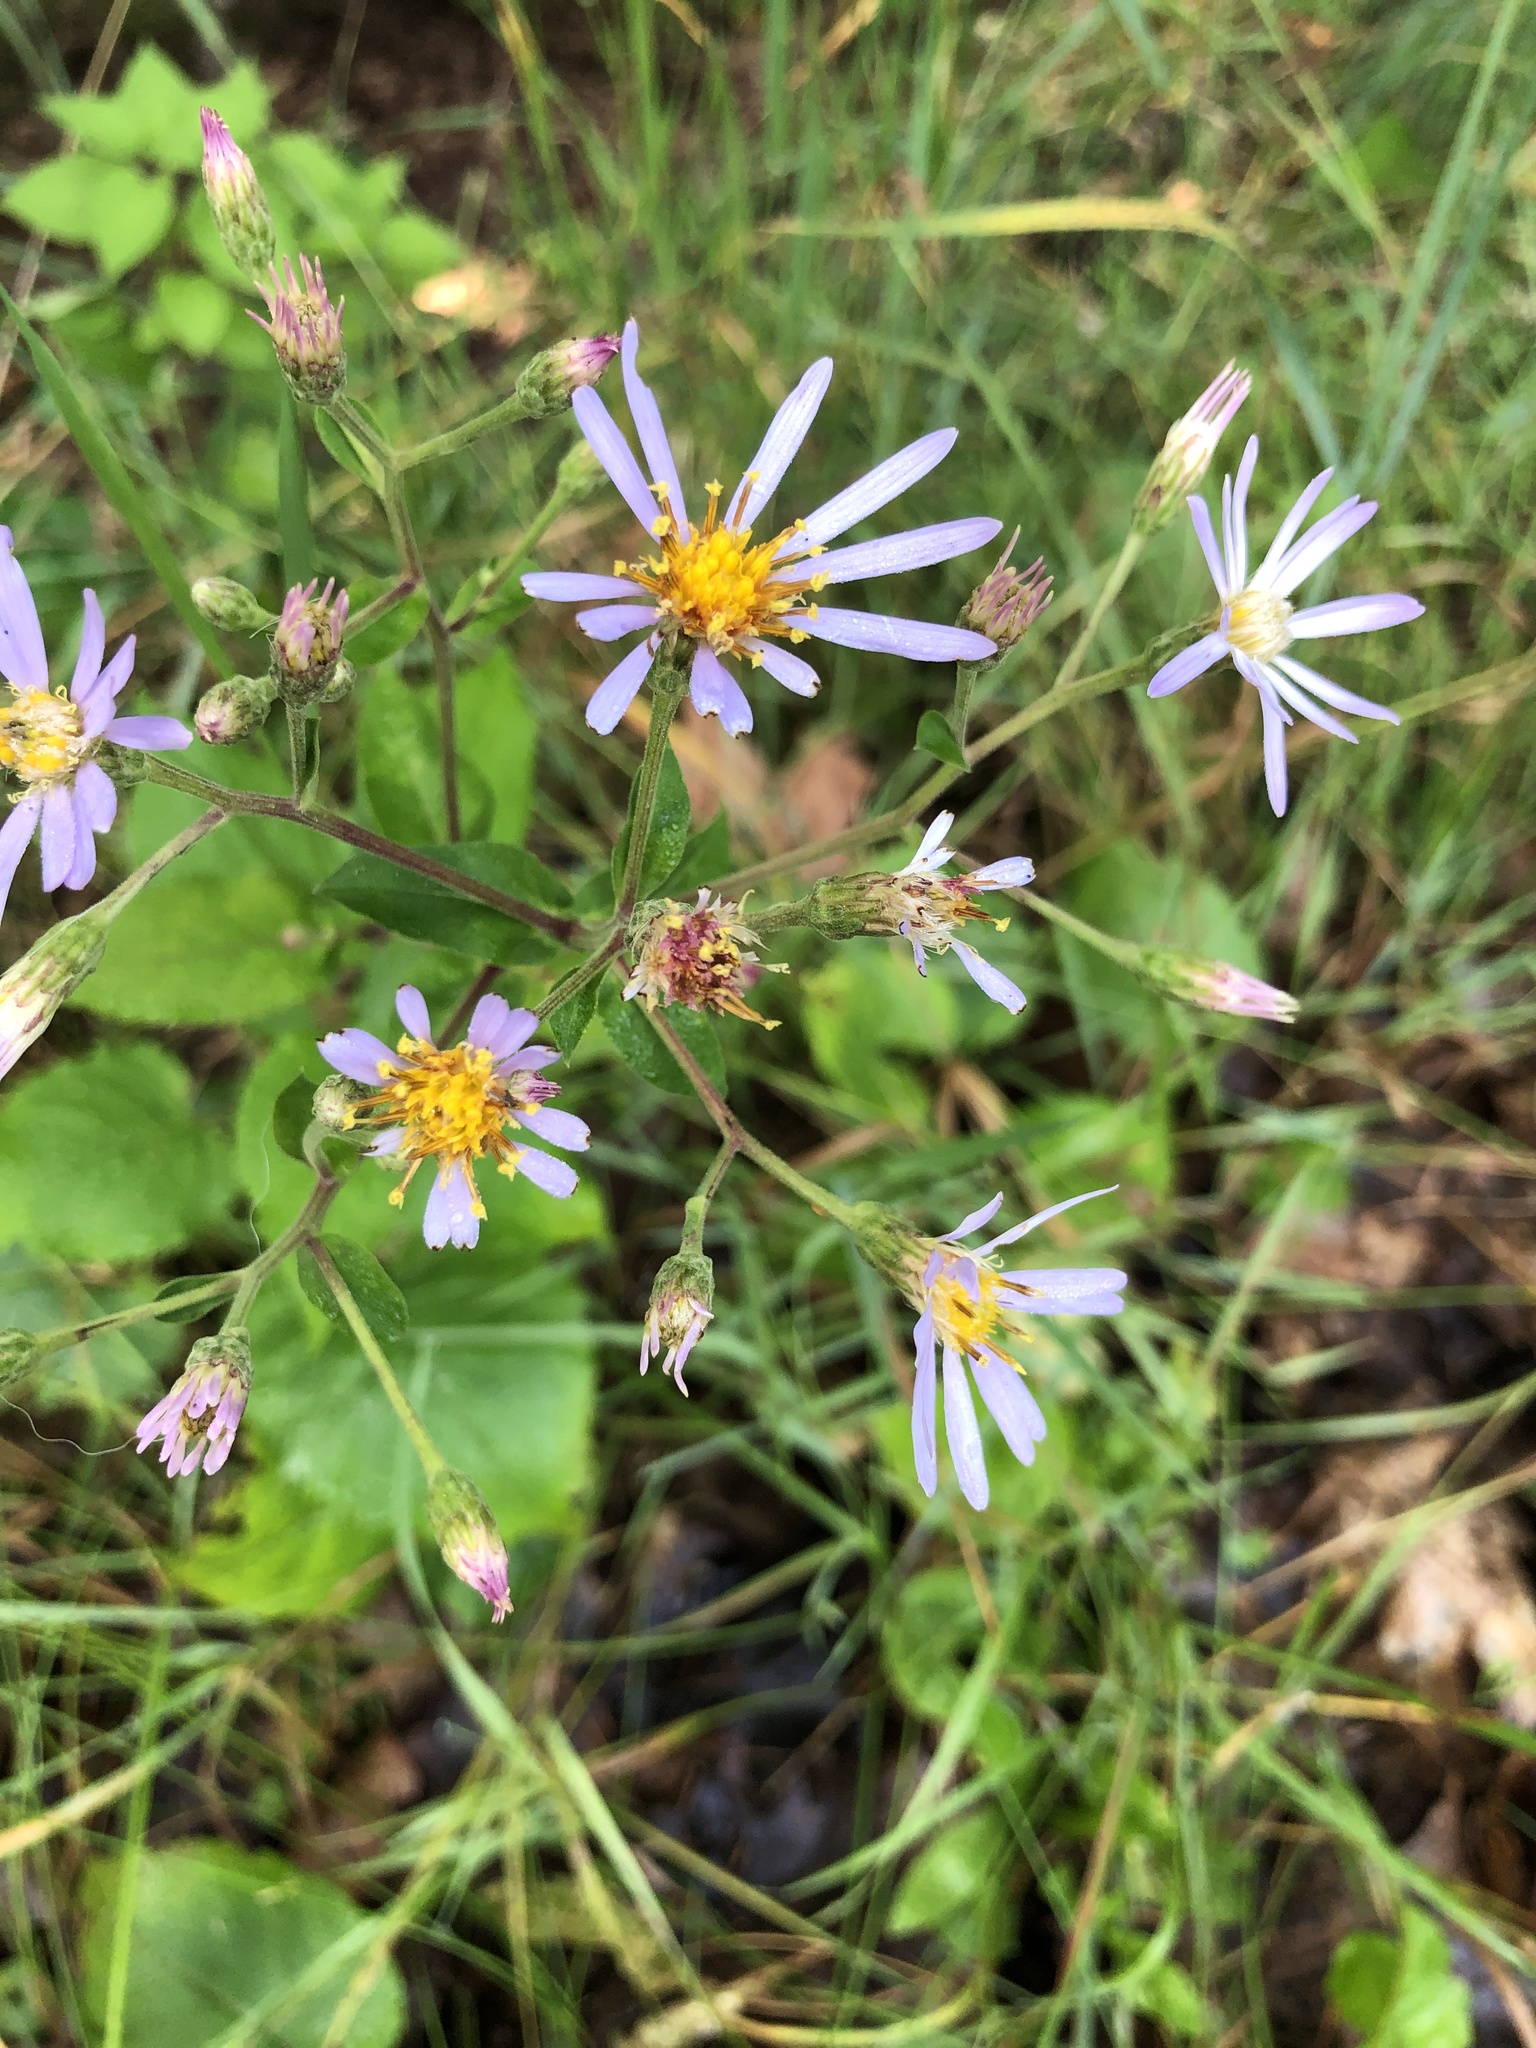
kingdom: Plantae
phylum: Tracheophyta
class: Magnoliopsida
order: Asterales
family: Asteraceae
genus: Eurybia
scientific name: Eurybia macrophylla
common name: Big-leaved aster
